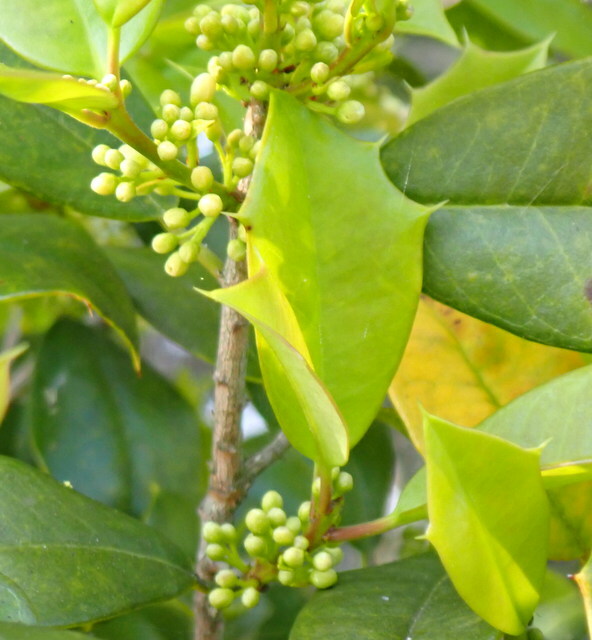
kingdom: Plantae
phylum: Tracheophyta
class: Magnoliopsida
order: Aquifoliales
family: Aquifoliaceae
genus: Ilex
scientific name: Ilex opaca
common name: American holly
